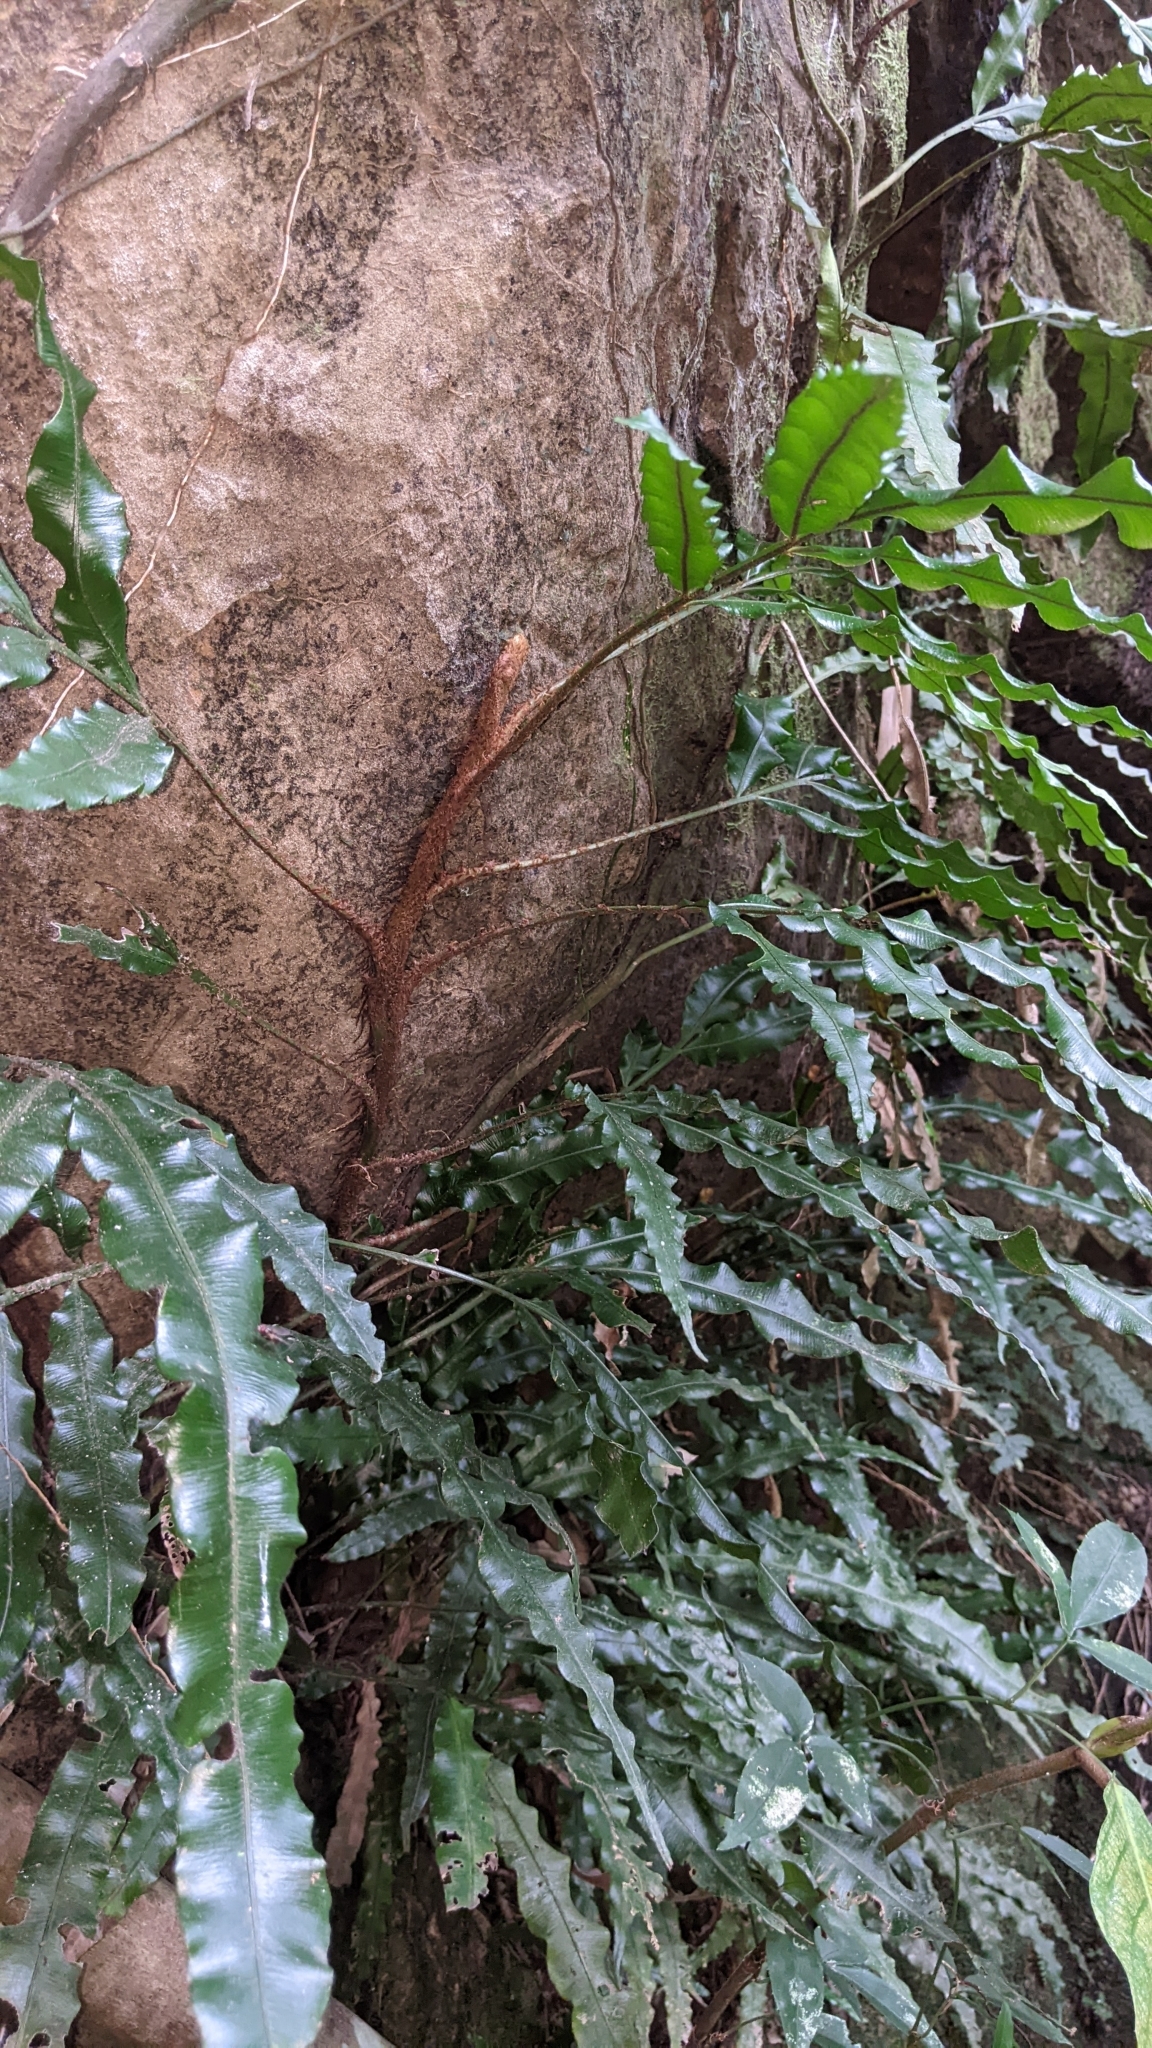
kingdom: Plantae
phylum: Tracheophyta
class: Polypodiopsida
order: Polypodiales
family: Lomariopsidaceae
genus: Lomariopsis
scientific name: Lomariopsis boninensis
